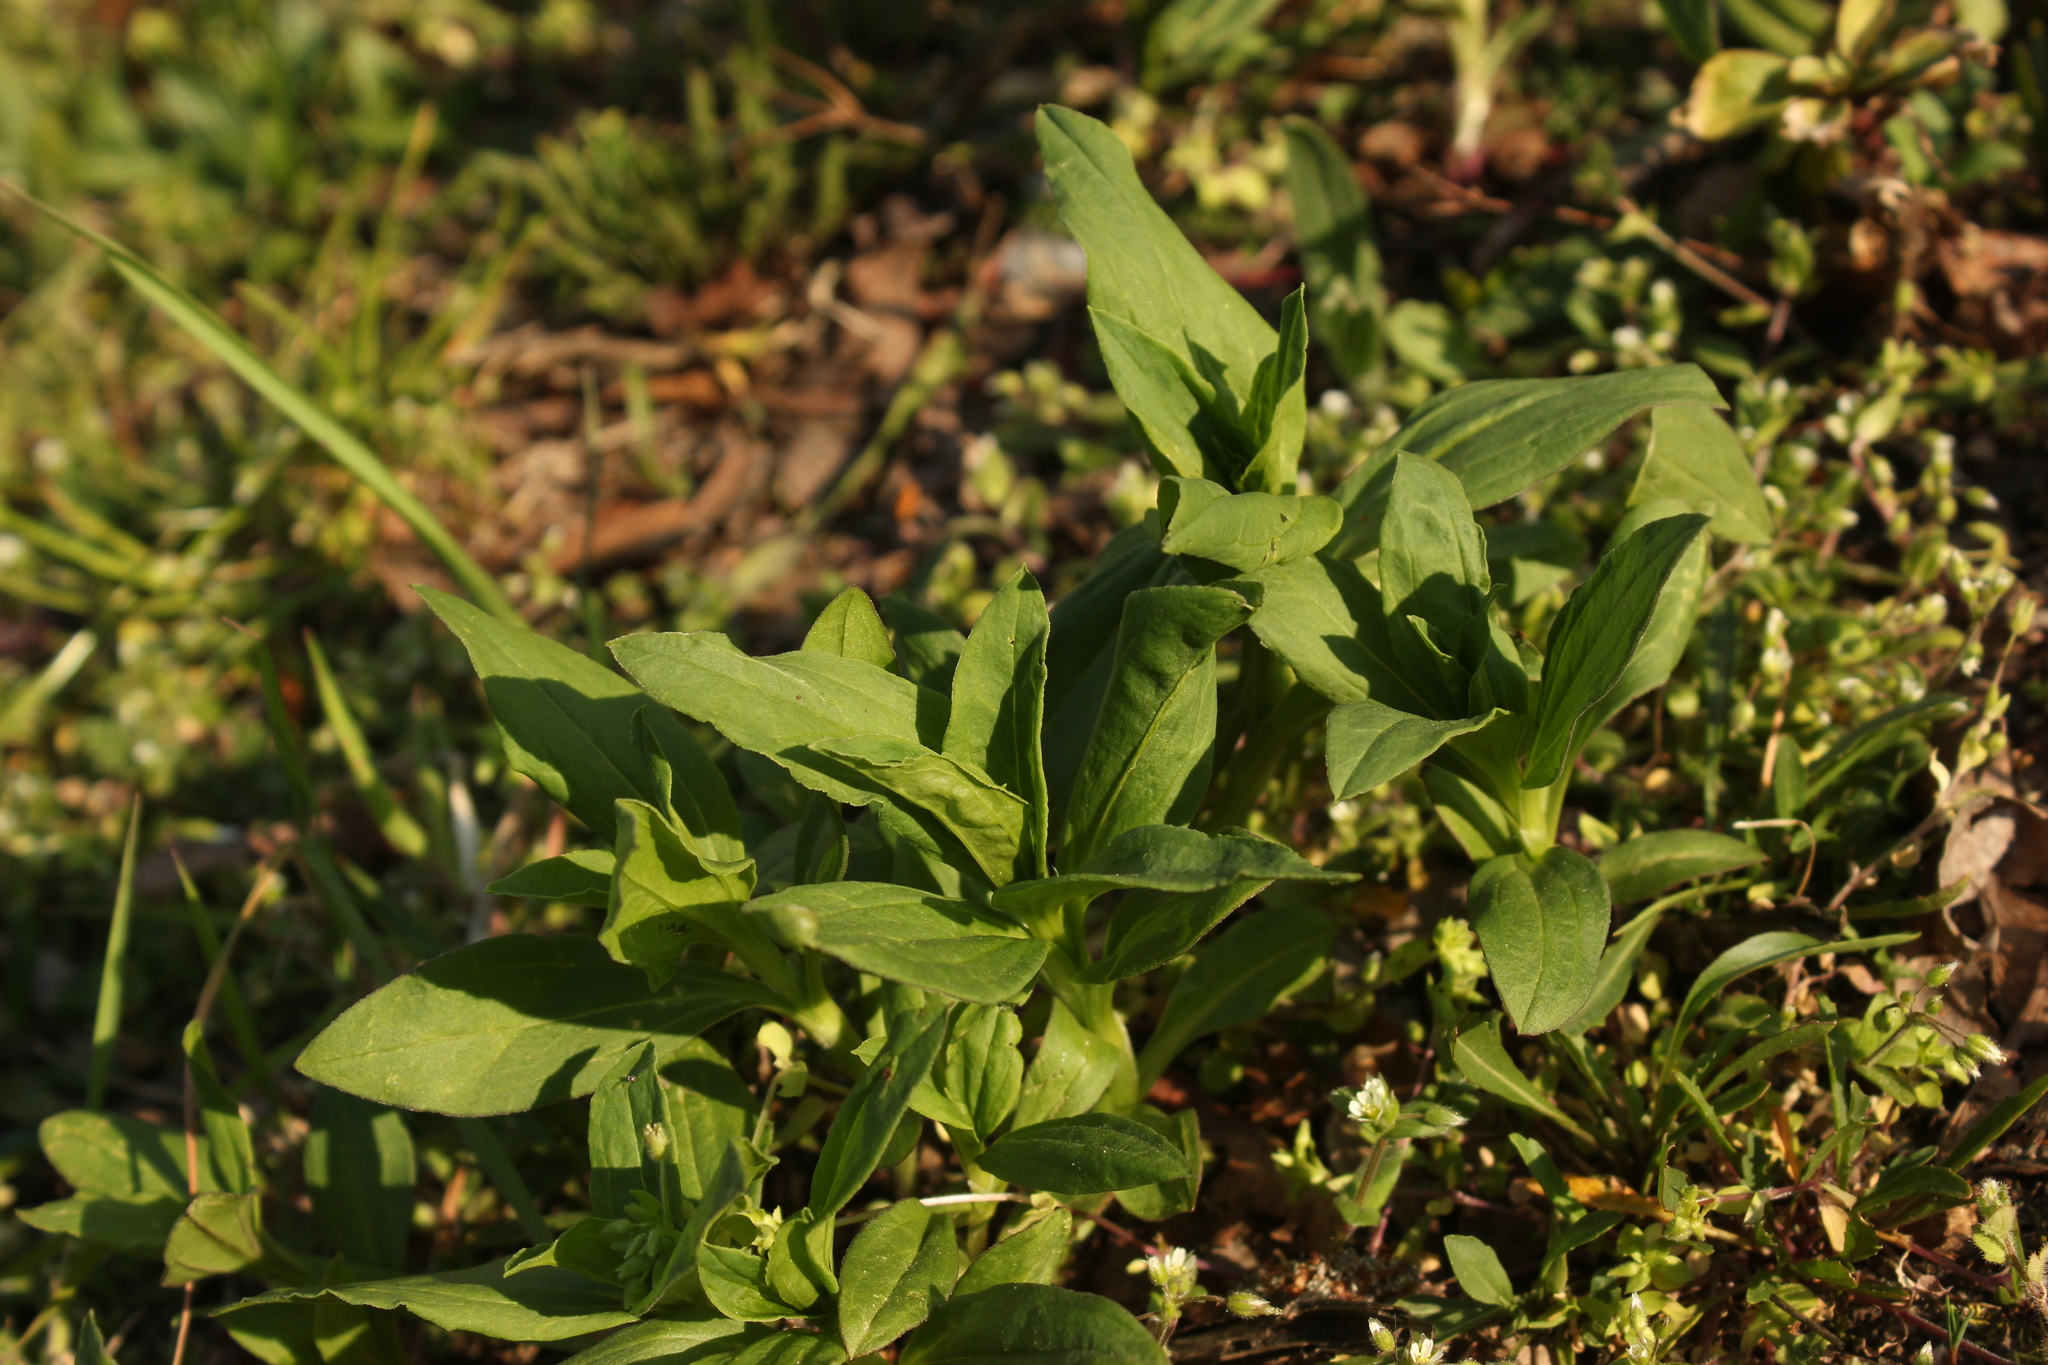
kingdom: Plantae
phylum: Tracheophyta
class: Magnoliopsida
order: Caryophyllales
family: Caryophyllaceae
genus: Saponaria
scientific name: Saponaria officinalis
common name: Soapwort
